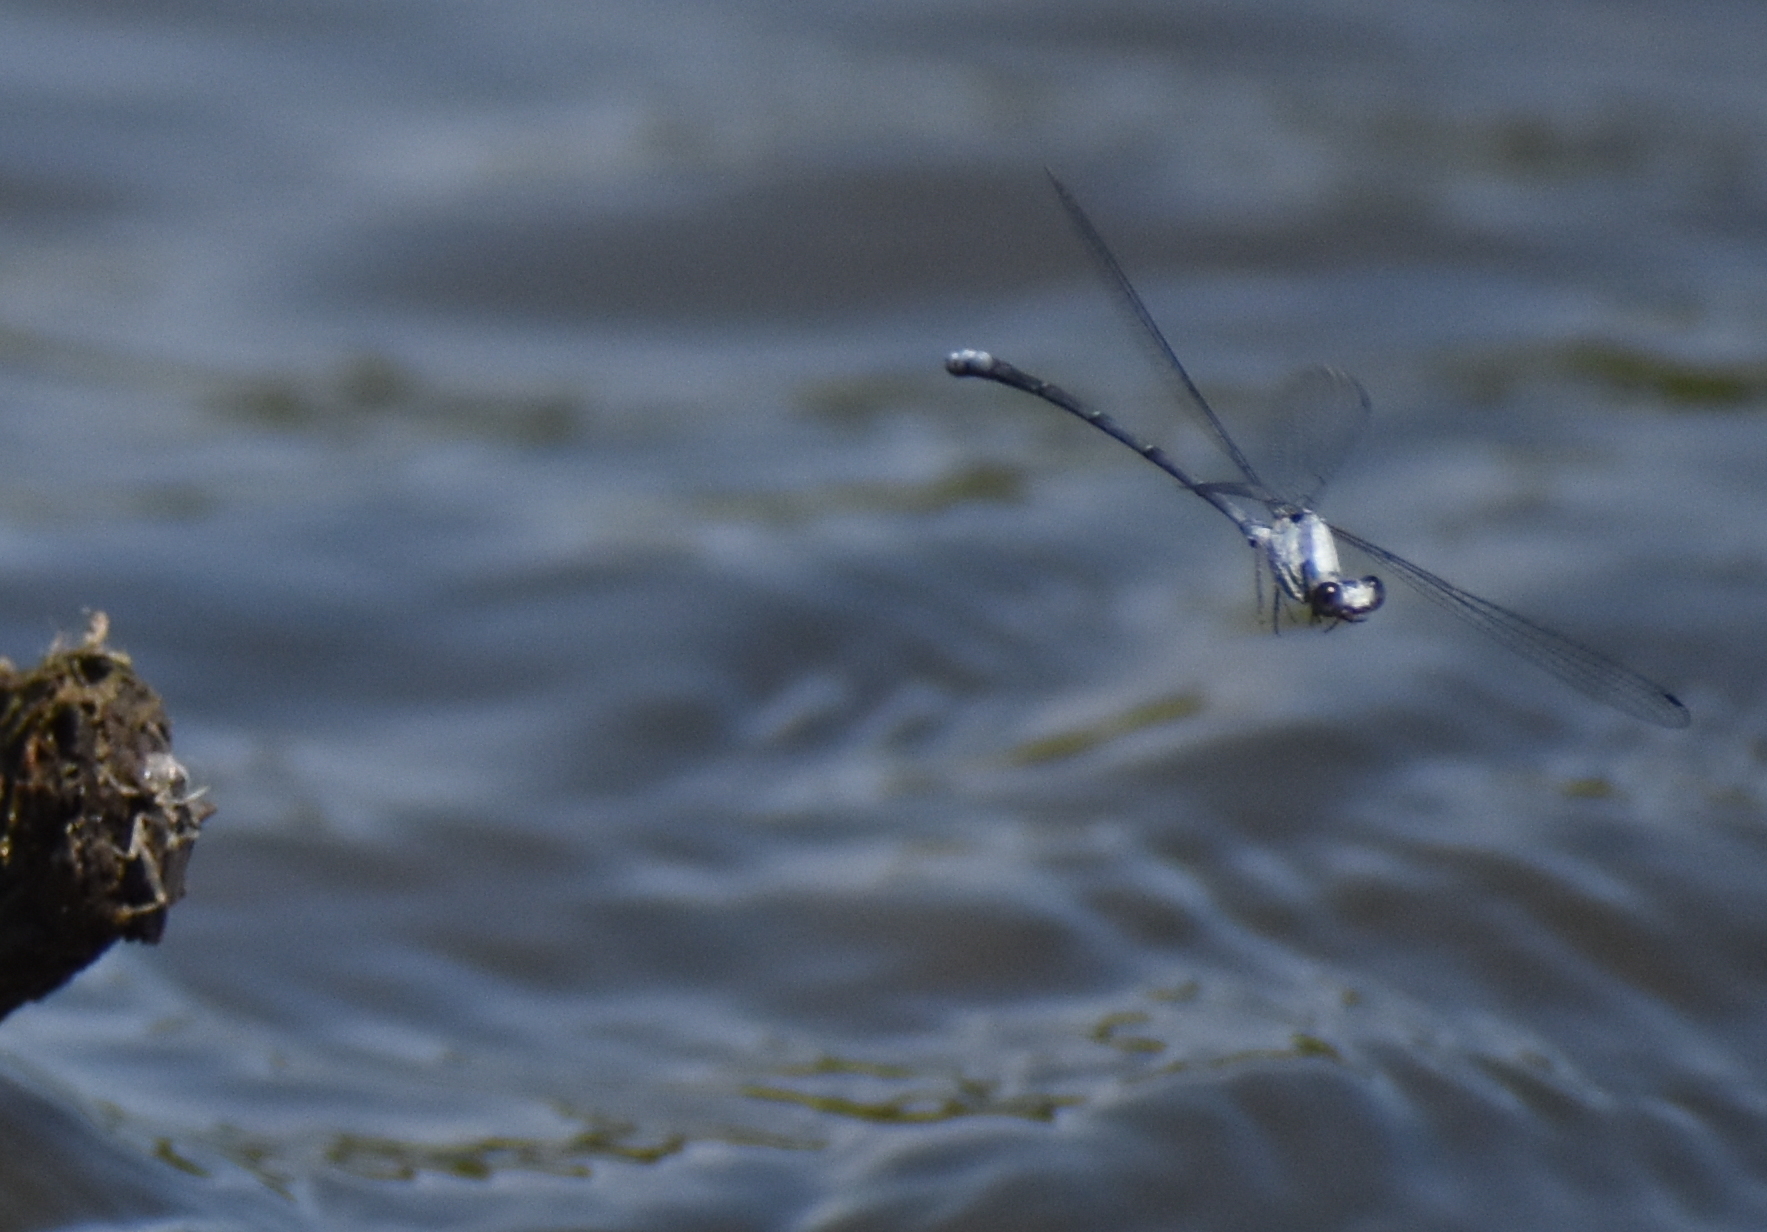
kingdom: Animalia
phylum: Arthropoda
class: Insecta
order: Odonata
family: Coenagrionidae
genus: Argia
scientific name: Argia moesta
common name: Powdered dancer
